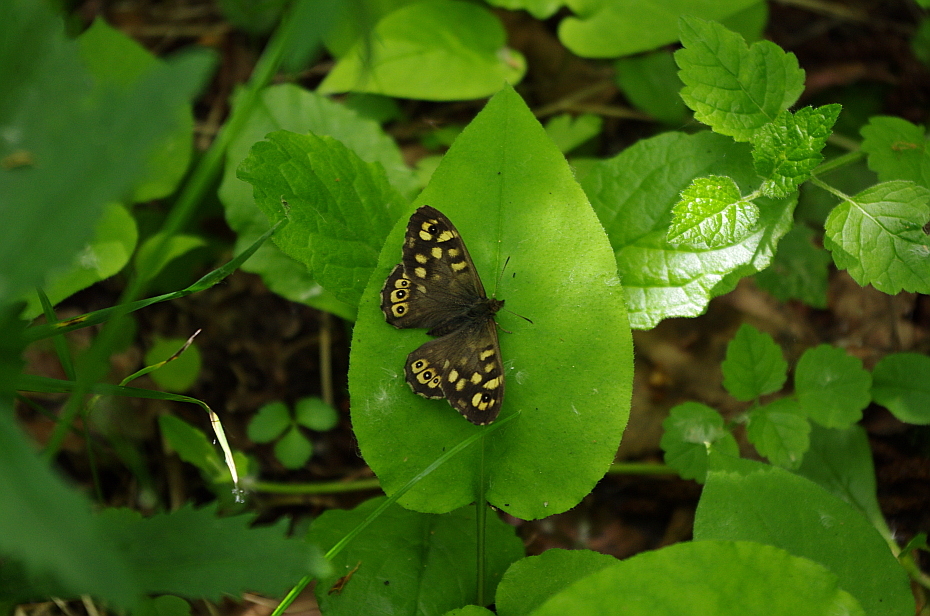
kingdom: Animalia
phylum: Arthropoda
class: Insecta
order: Lepidoptera
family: Nymphalidae
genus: Pararge
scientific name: Pararge aegeria
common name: Speckled wood
